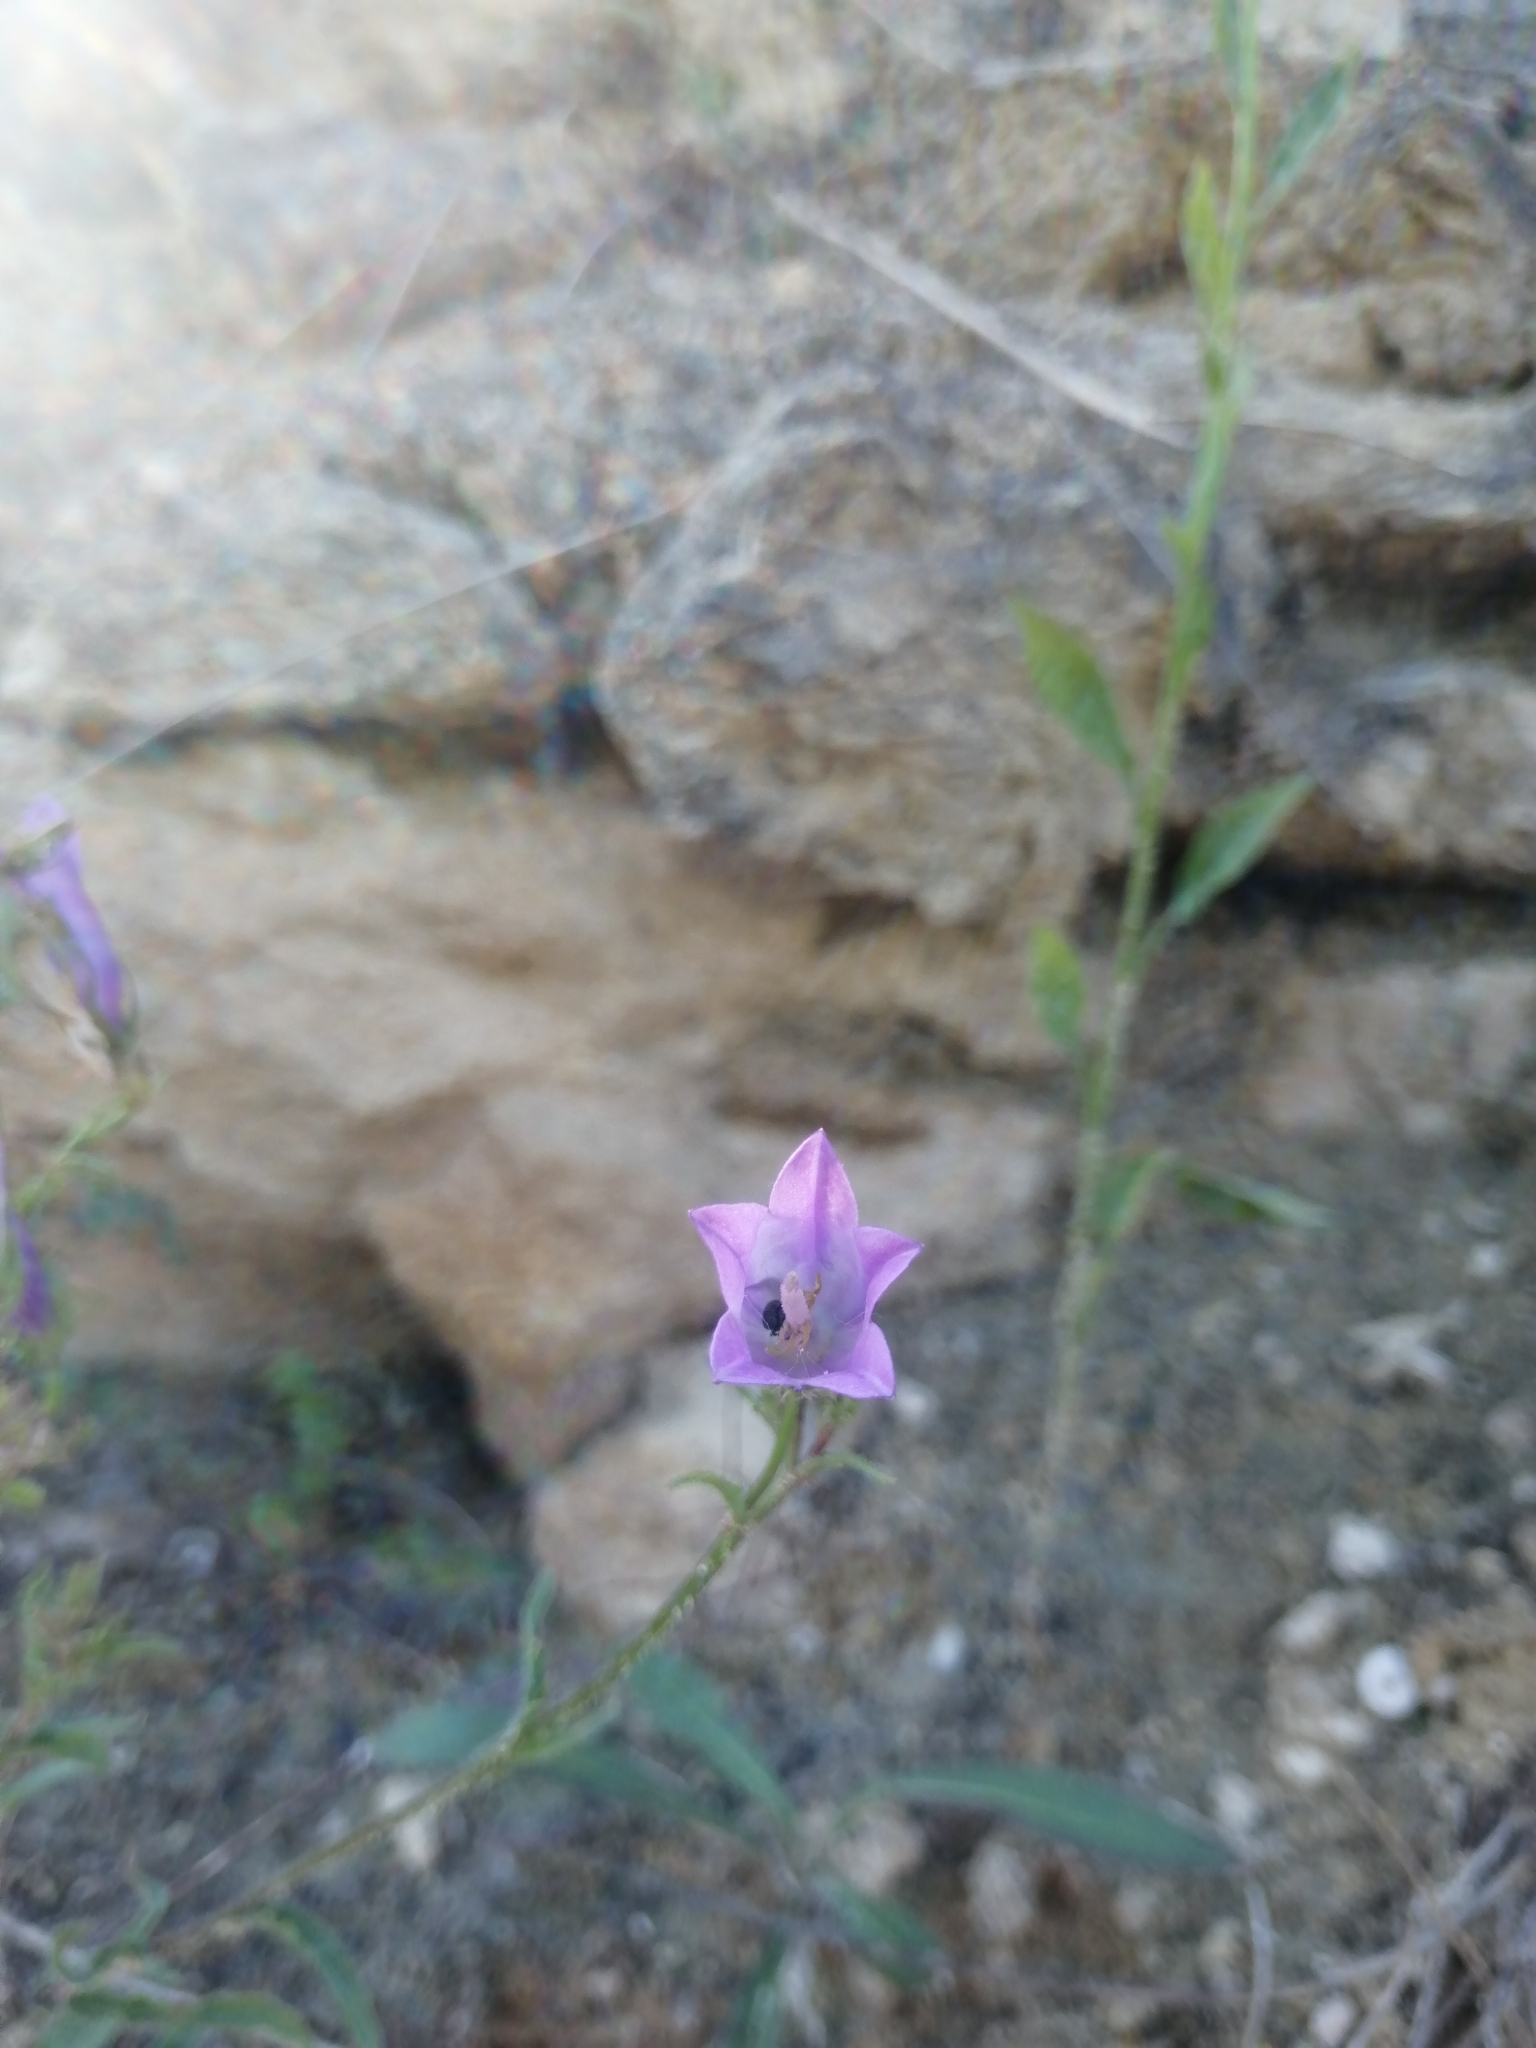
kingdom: Plantae
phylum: Tracheophyta
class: Magnoliopsida
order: Asterales
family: Campanulaceae
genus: Campanula
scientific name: Campanula sibirica
